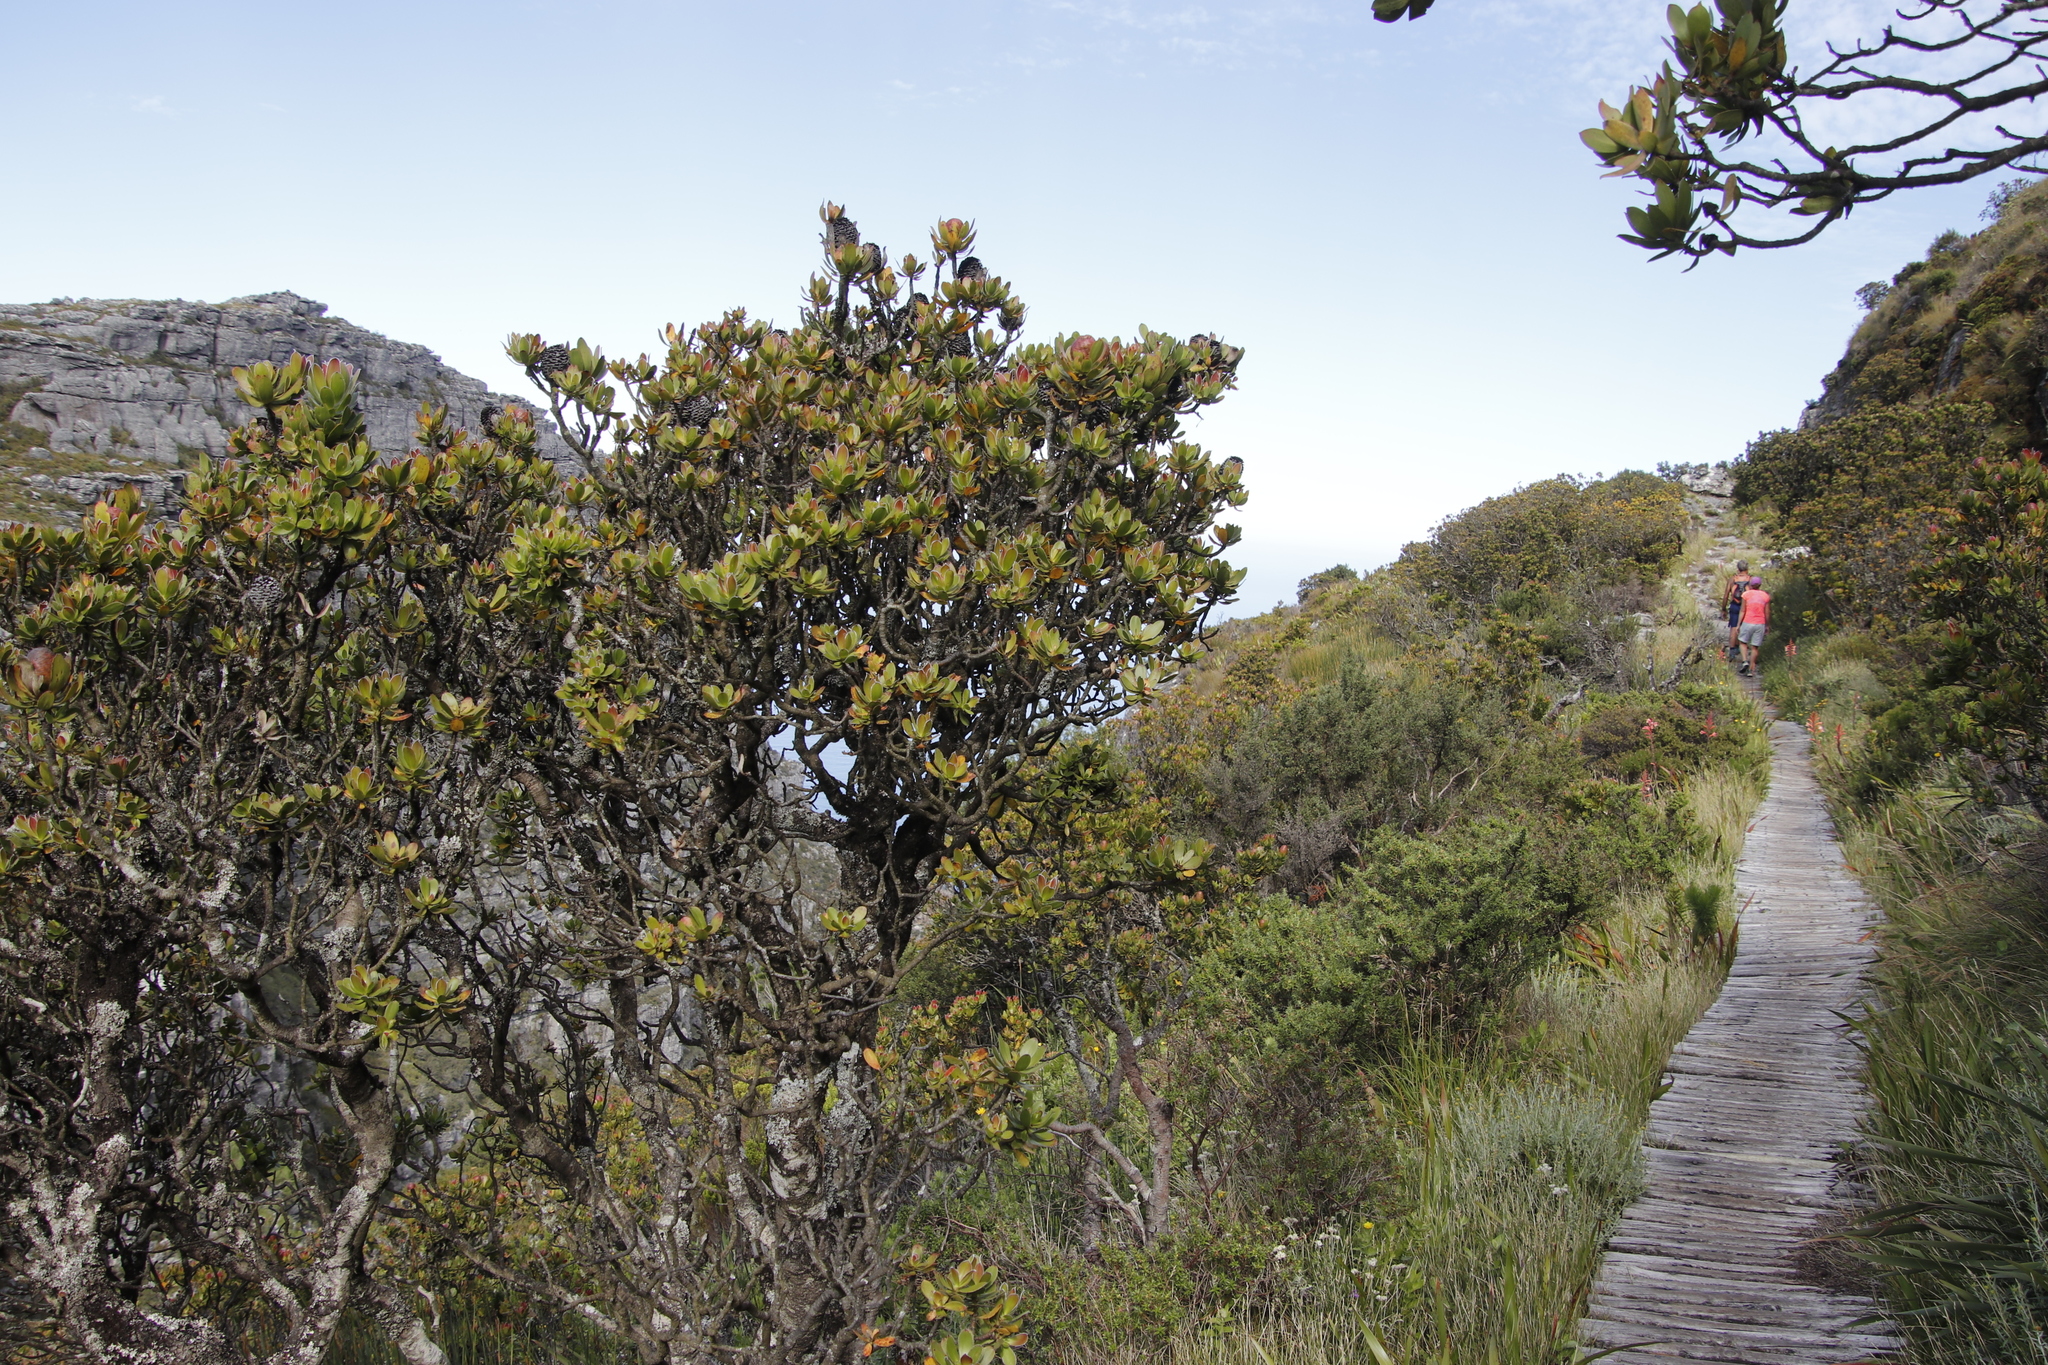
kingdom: Plantae
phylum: Tracheophyta
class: Magnoliopsida
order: Proteales
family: Proteaceae
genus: Leucadendron
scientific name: Leucadendron strobilinum
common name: Mountain rose
